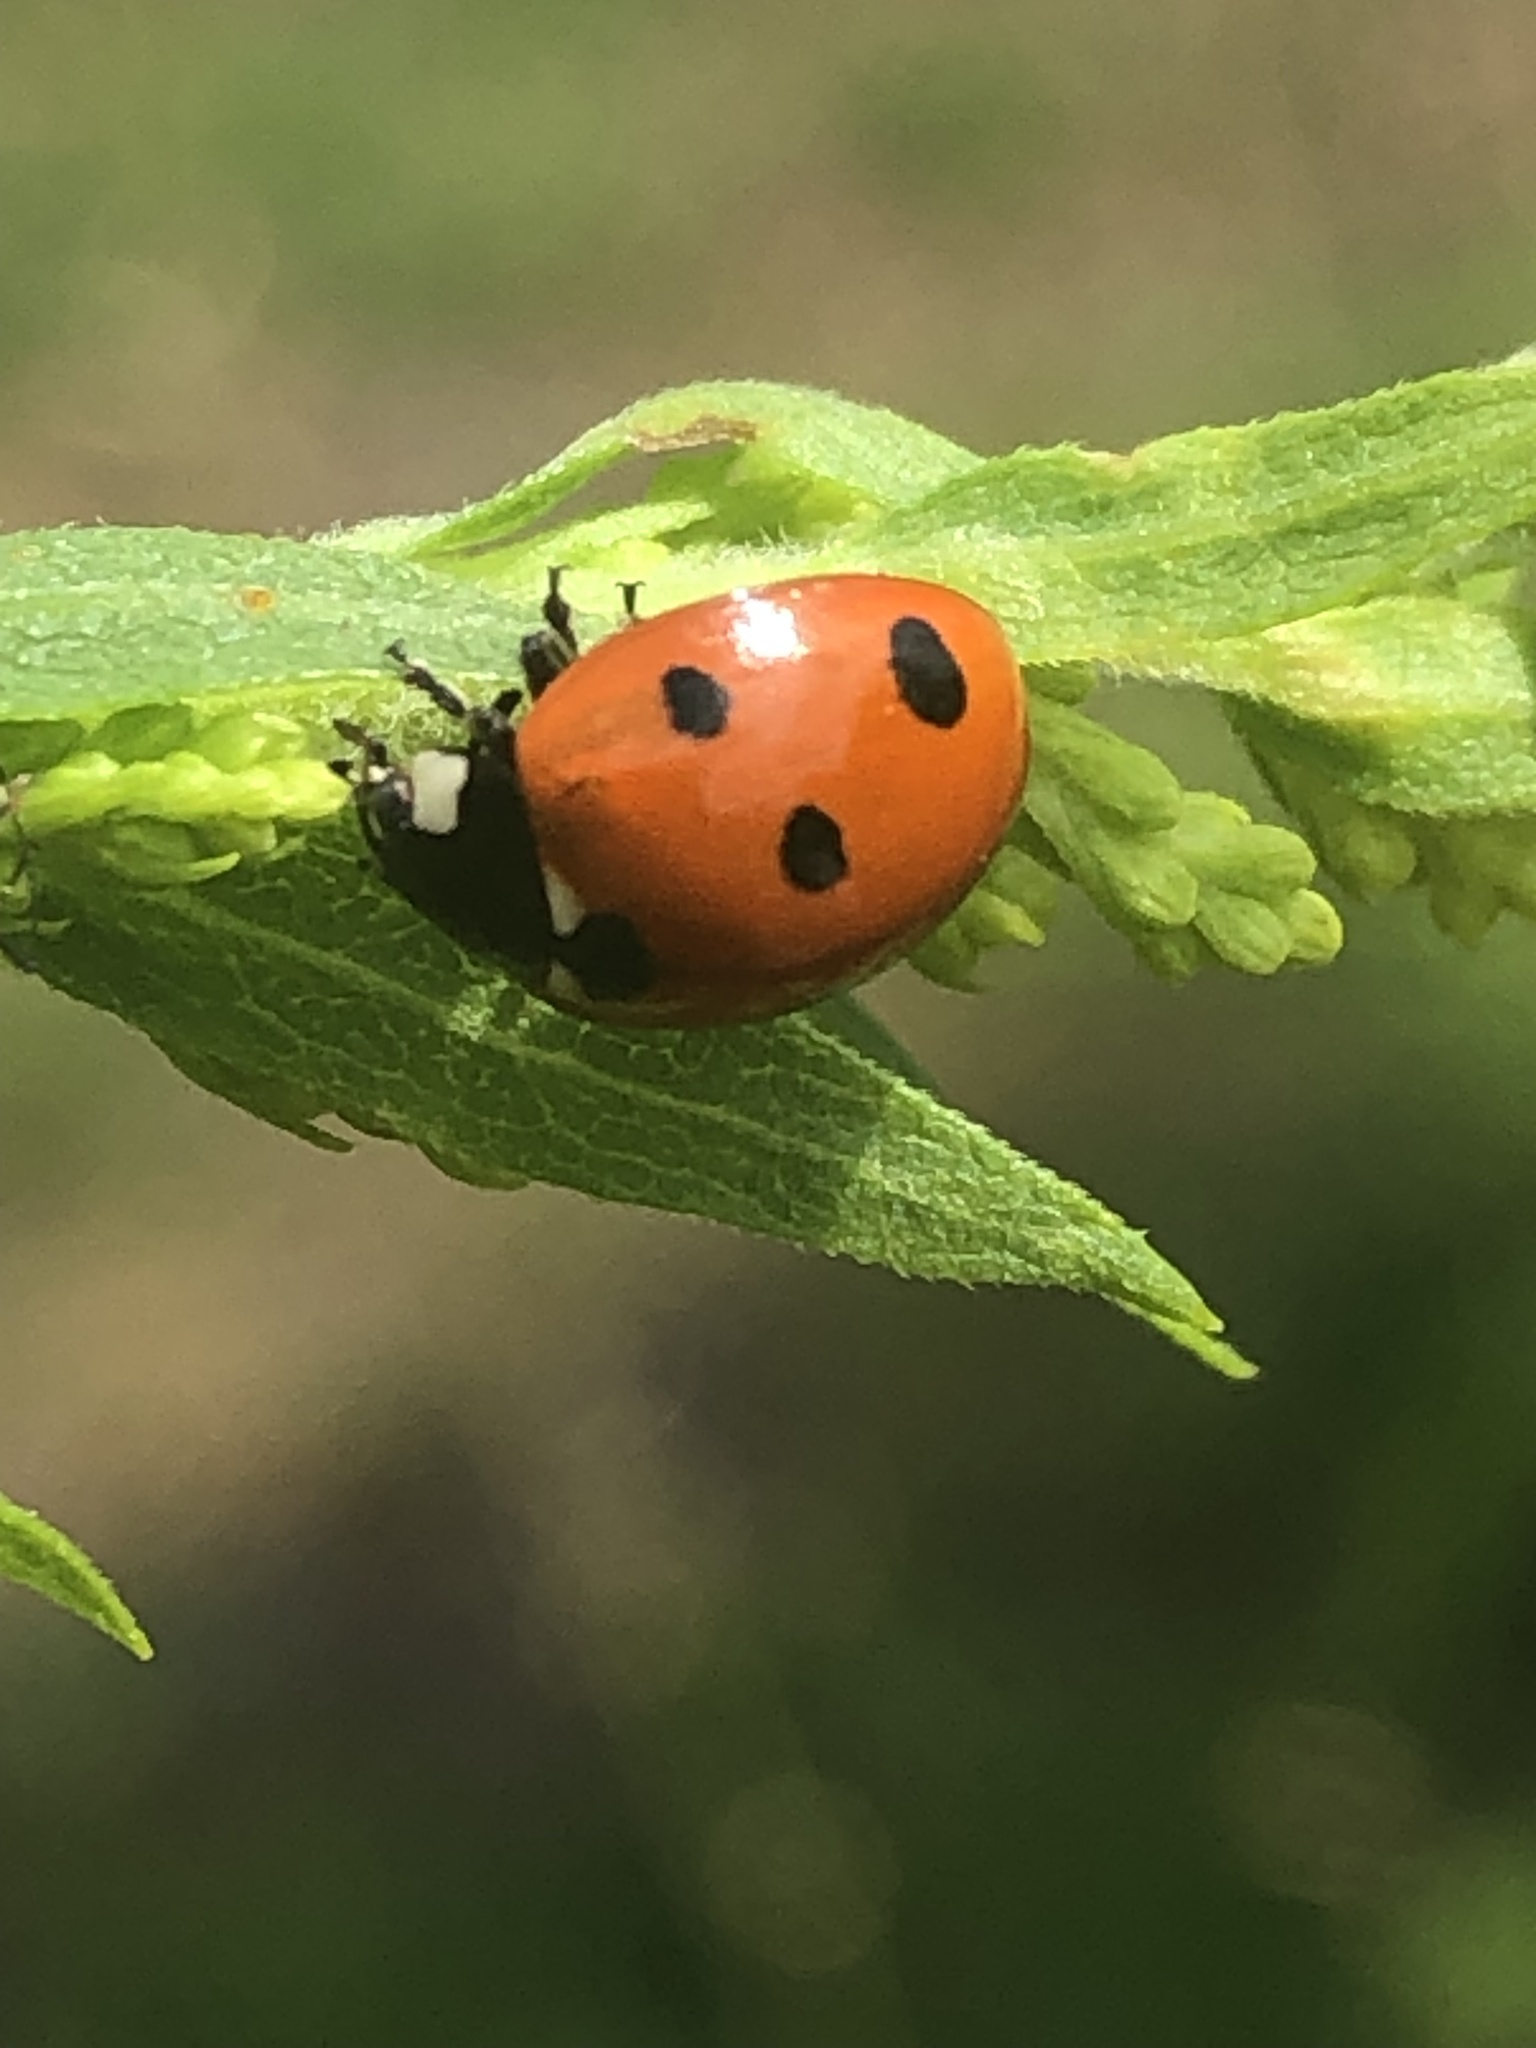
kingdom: Animalia
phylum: Arthropoda
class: Insecta
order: Coleoptera
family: Coccinellidae
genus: Coccinella
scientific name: Coccinella septempunctata
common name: Sevenspotted lady beetle
